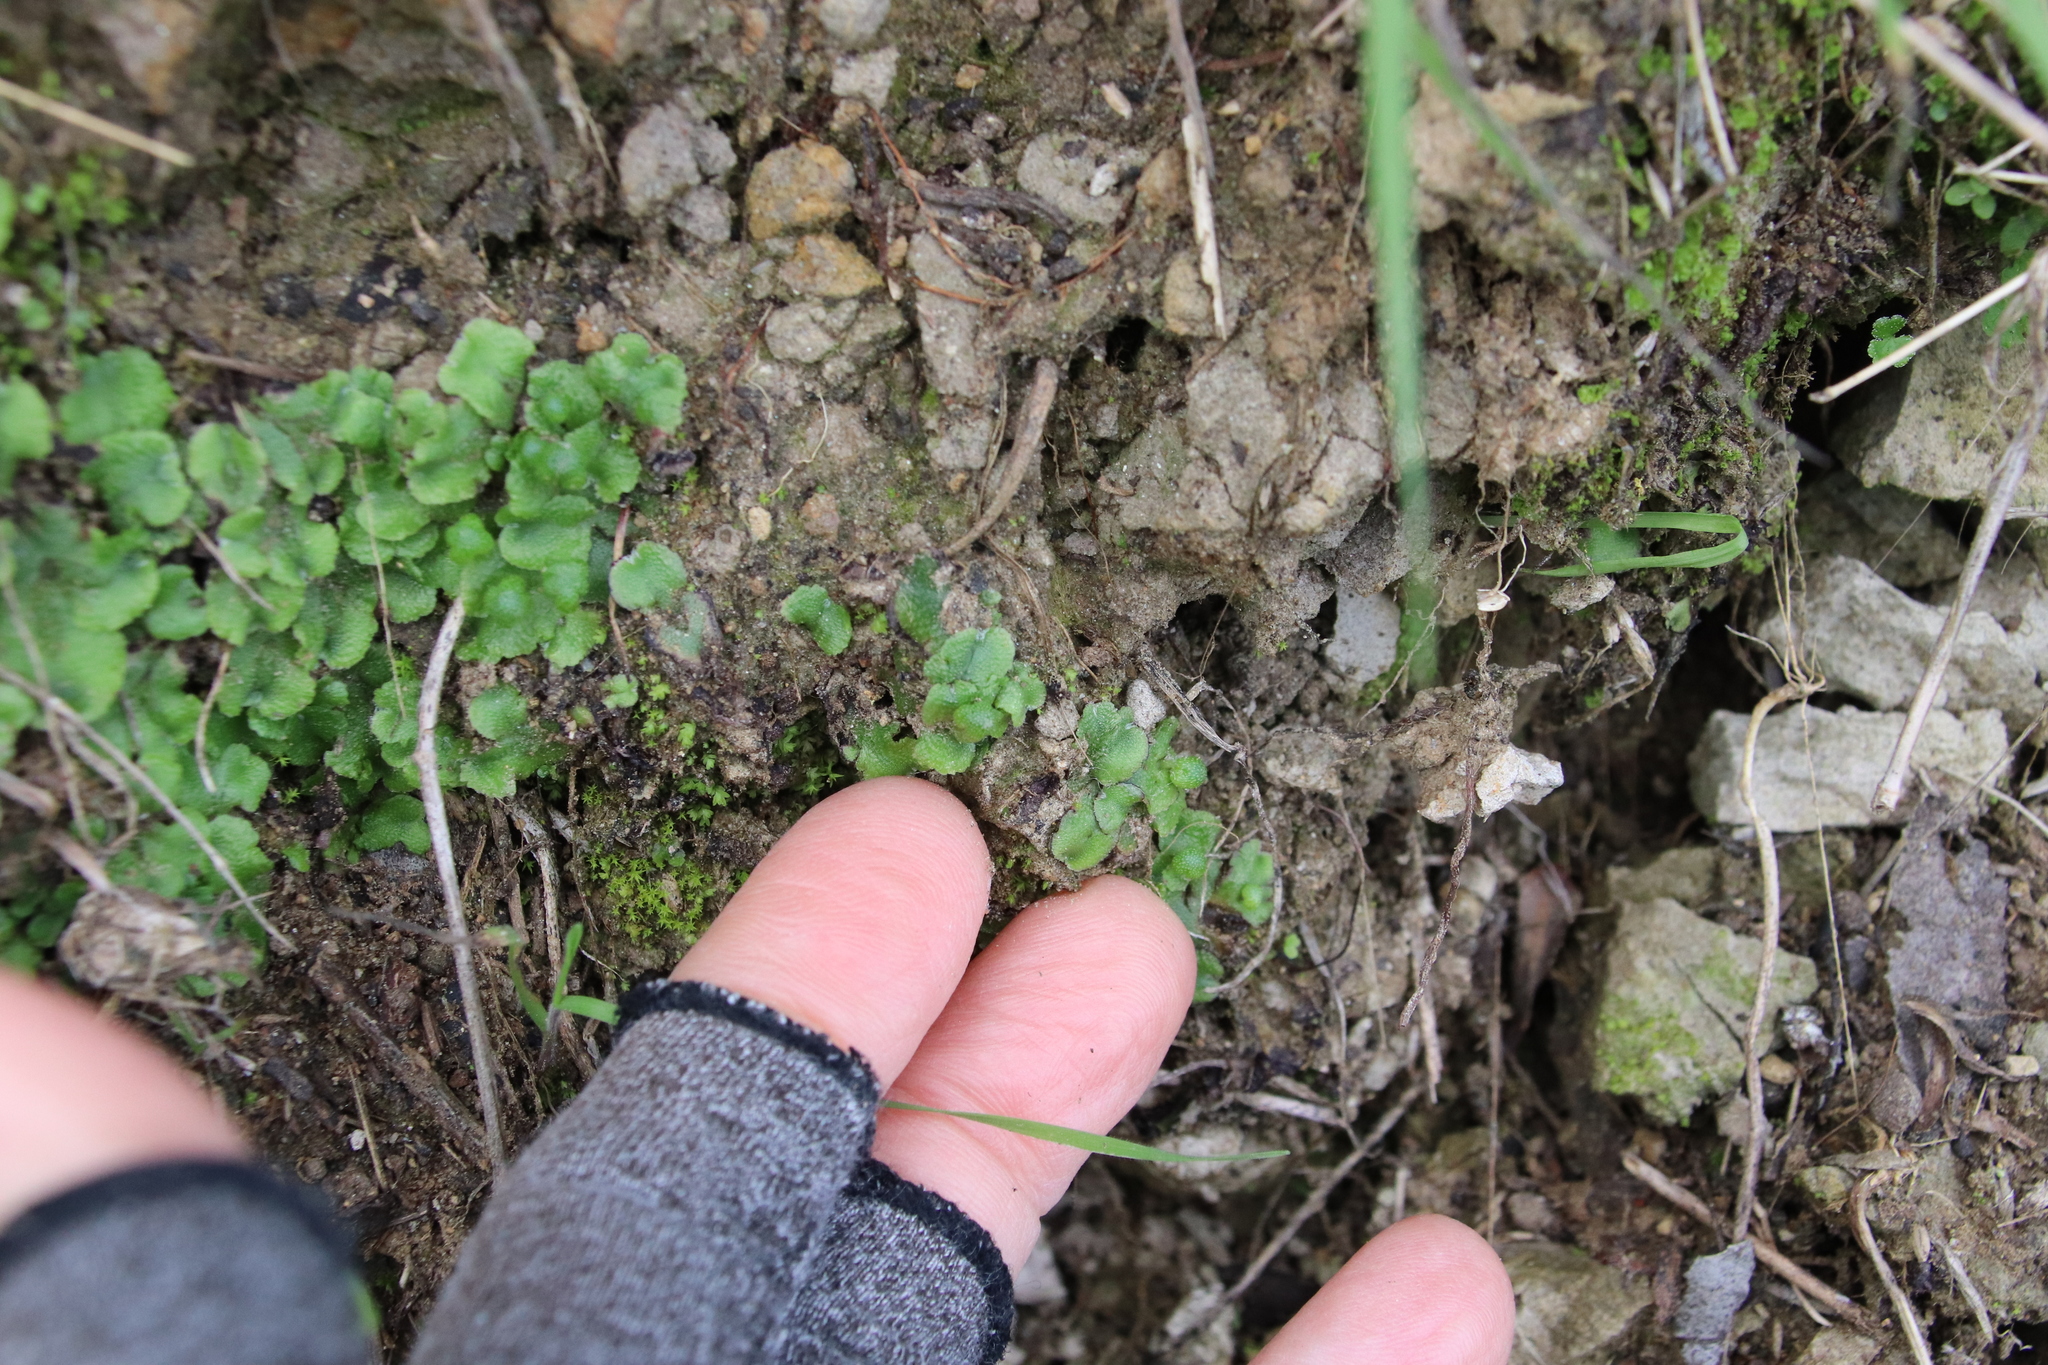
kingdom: Plantae
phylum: Marchantiophyta
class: Marchantiopsida
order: Marchantiales
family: Aytoniaceae
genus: Asterella
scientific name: Asterella californica
